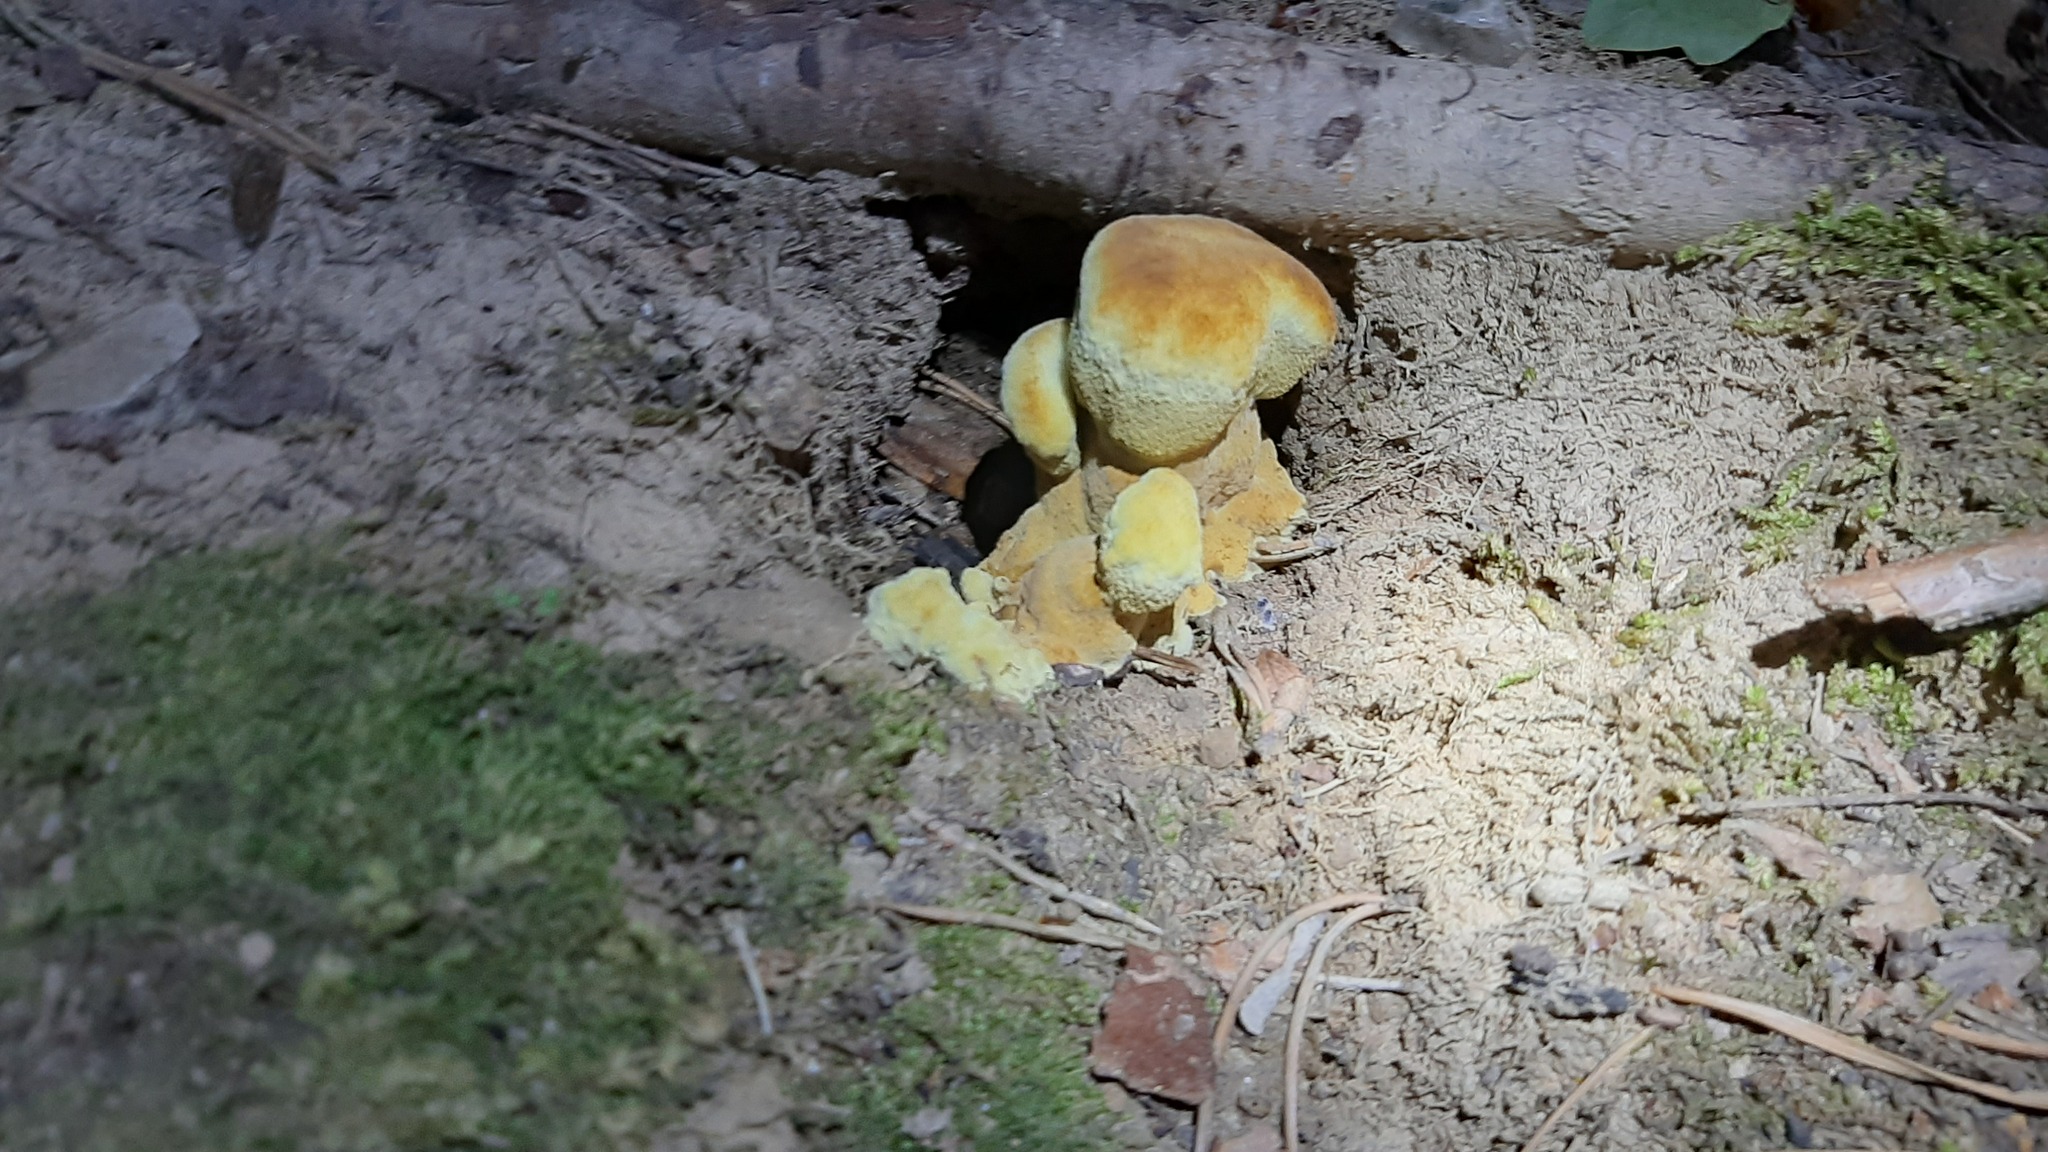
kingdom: Fungi
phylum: Basidiomycota
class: Agaricomycetes
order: Polyporales
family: Laetiporaceae
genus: Phaeolus
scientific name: Phaeolus schweinitzii
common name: Dyer's mazegill
